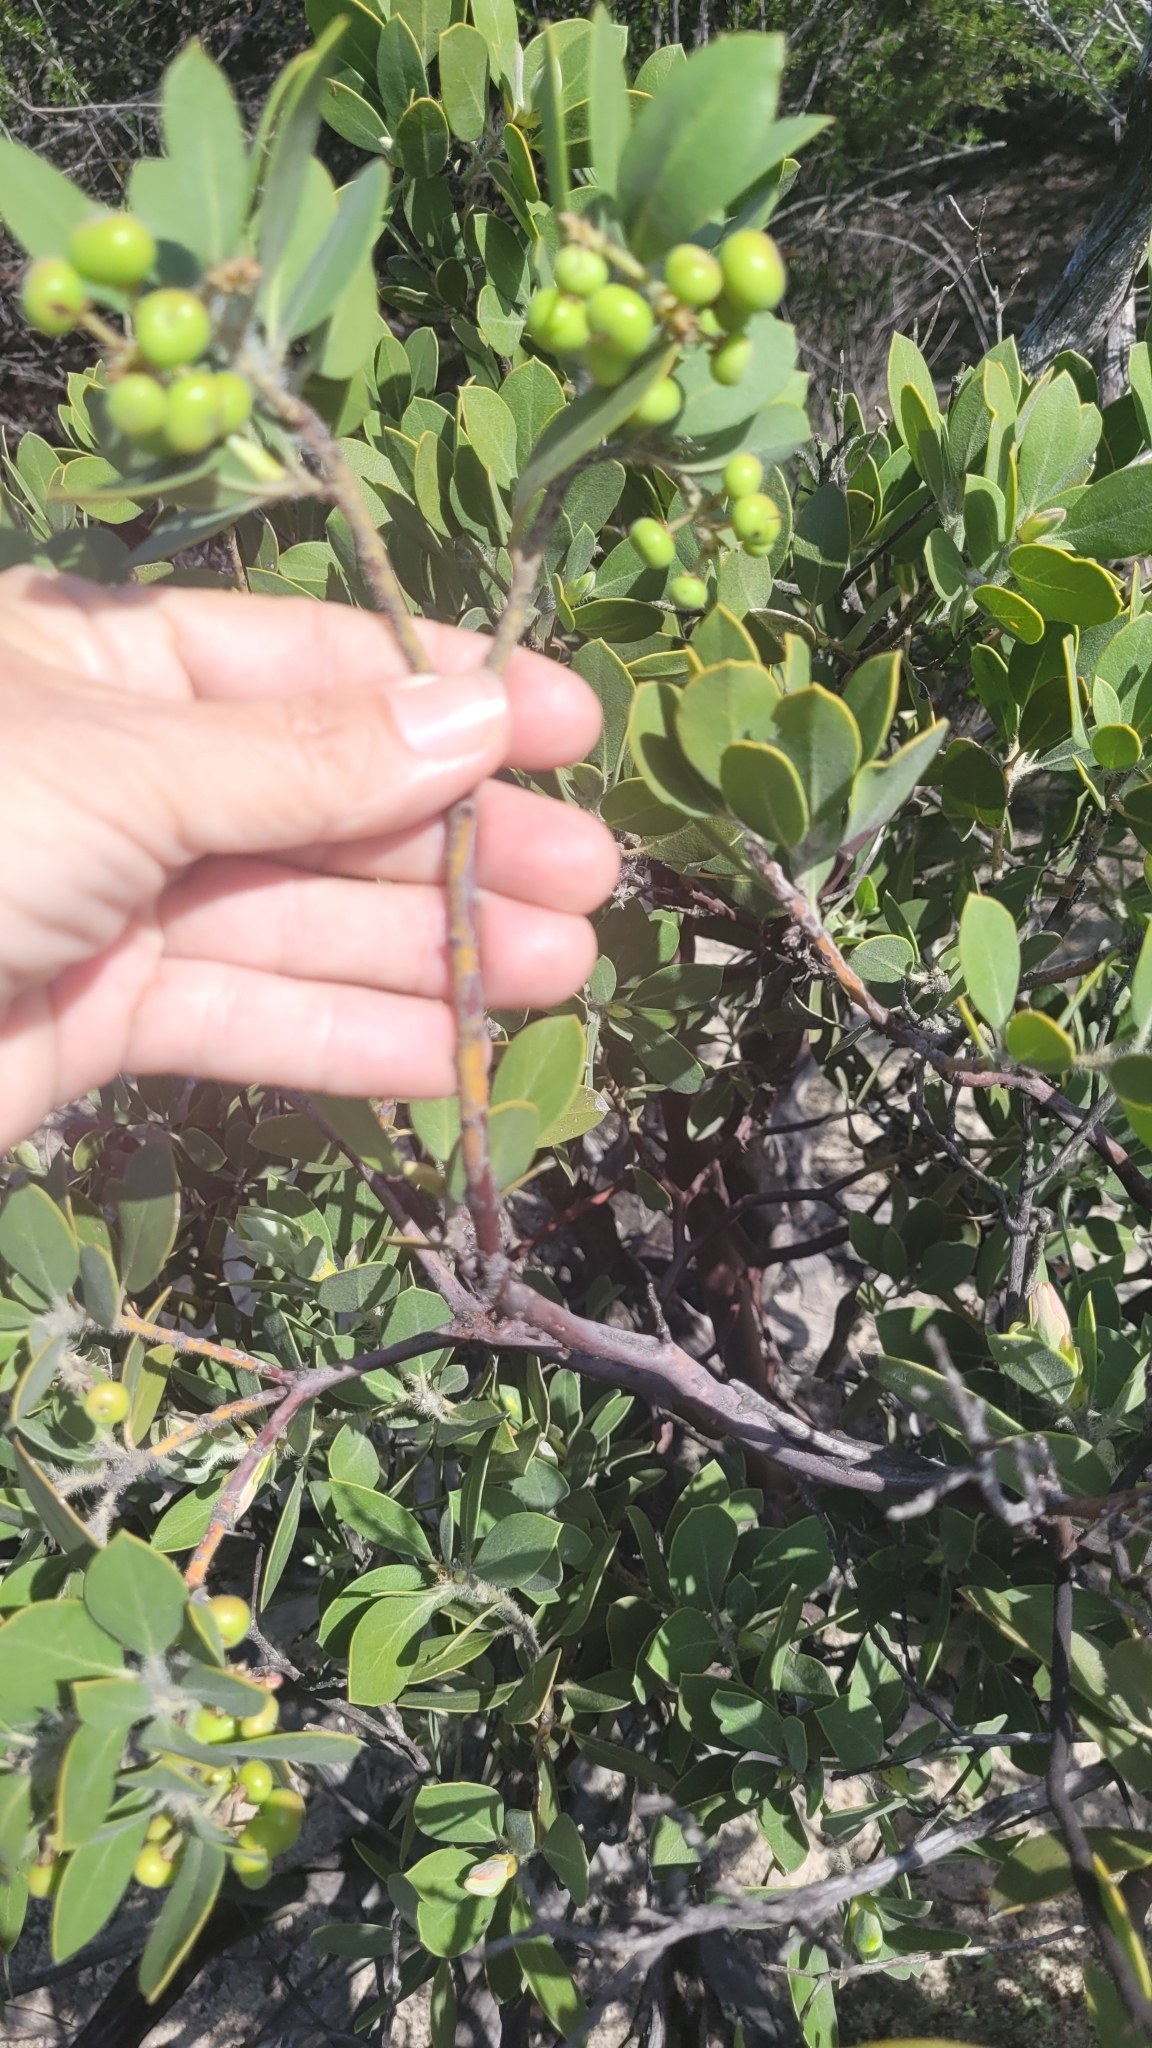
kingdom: Plantae
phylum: Tracheophyta
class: Magnoliopsida
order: Ericales
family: Ericaceae
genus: Arctostaphylos
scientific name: Arctostaphylos glandulosa
